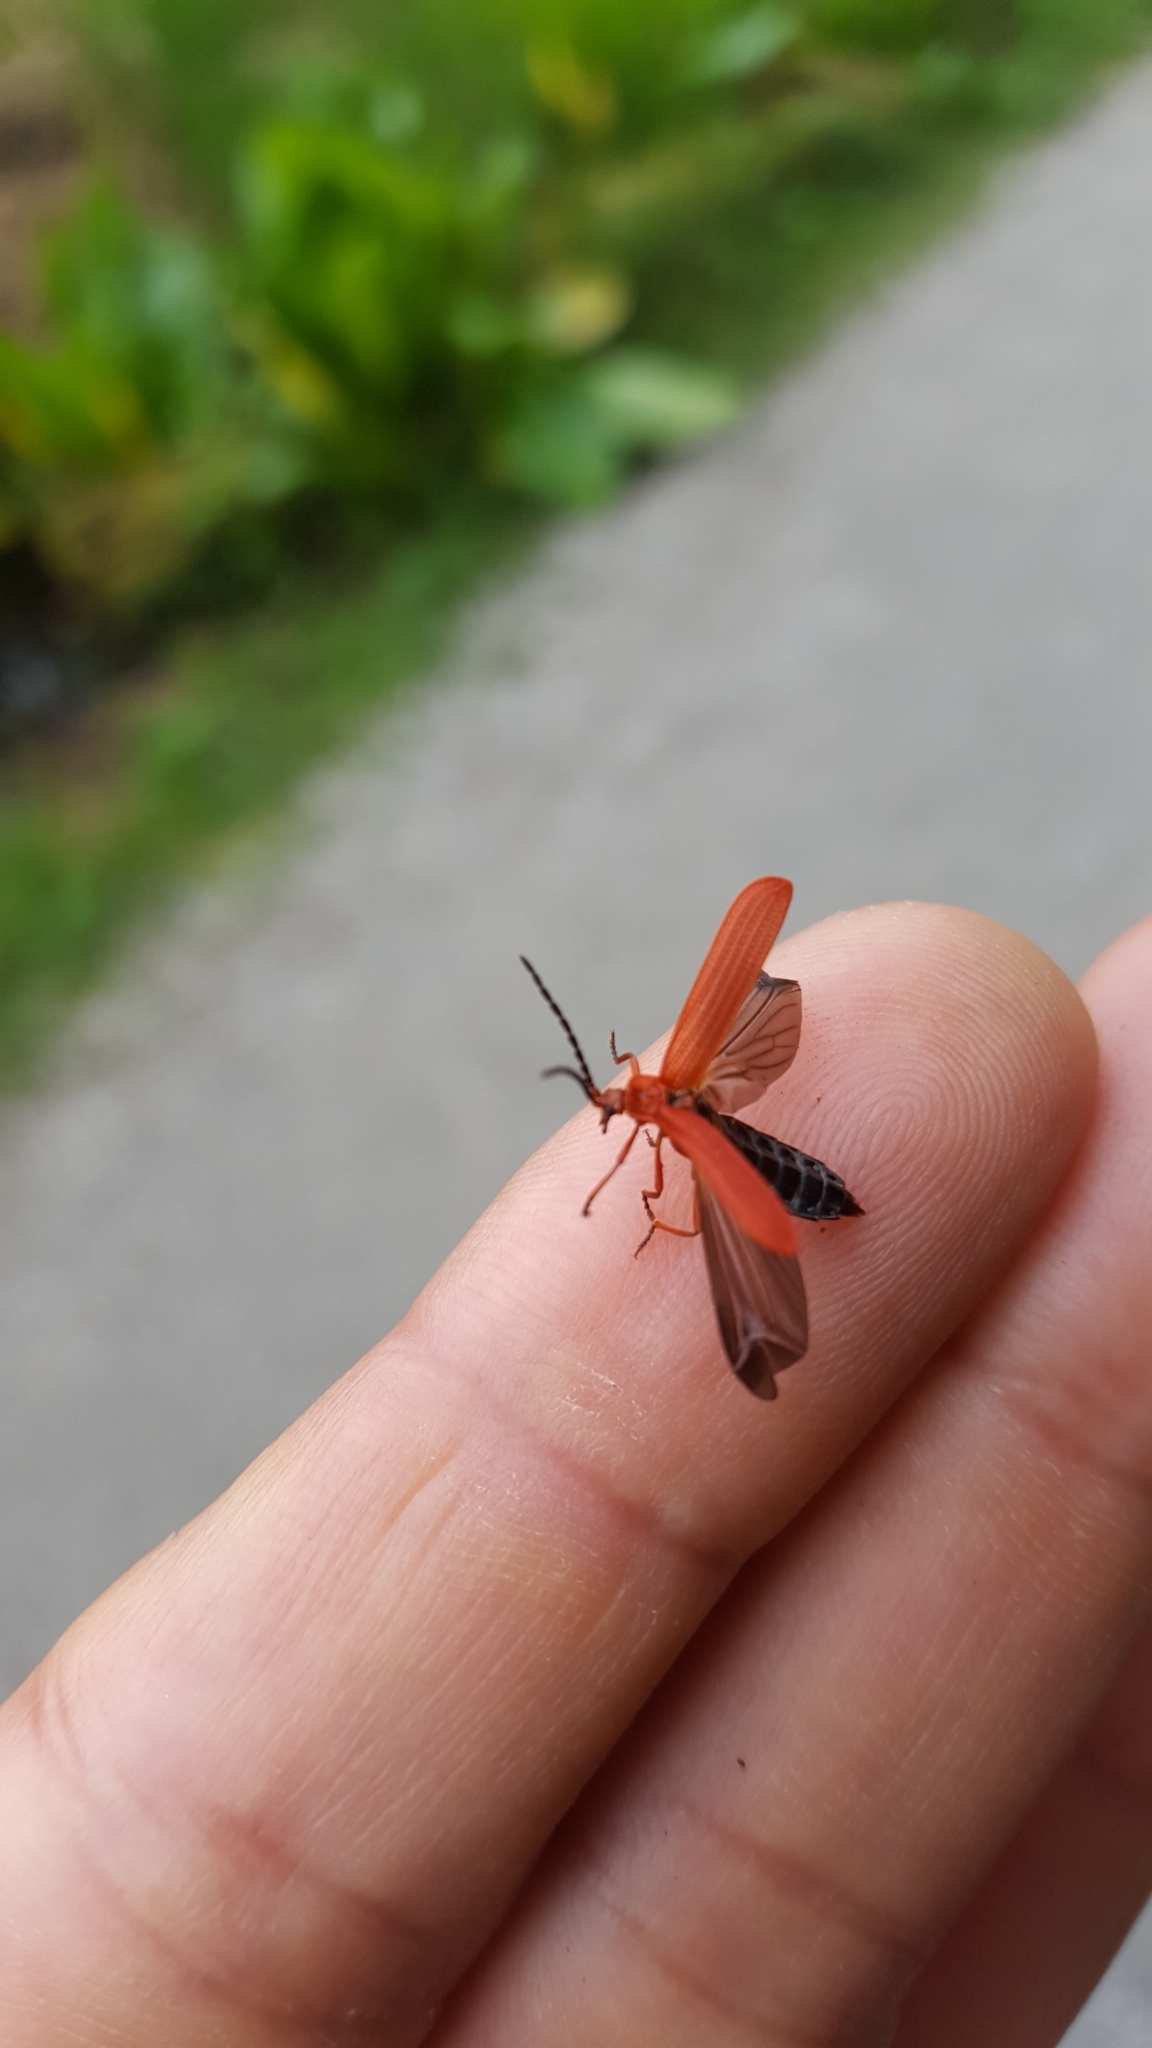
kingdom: Animalia
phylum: Arthropoda
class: Insecta
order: Coleoptera
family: Lycidae
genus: Punicealis
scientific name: Punicealis hamata
